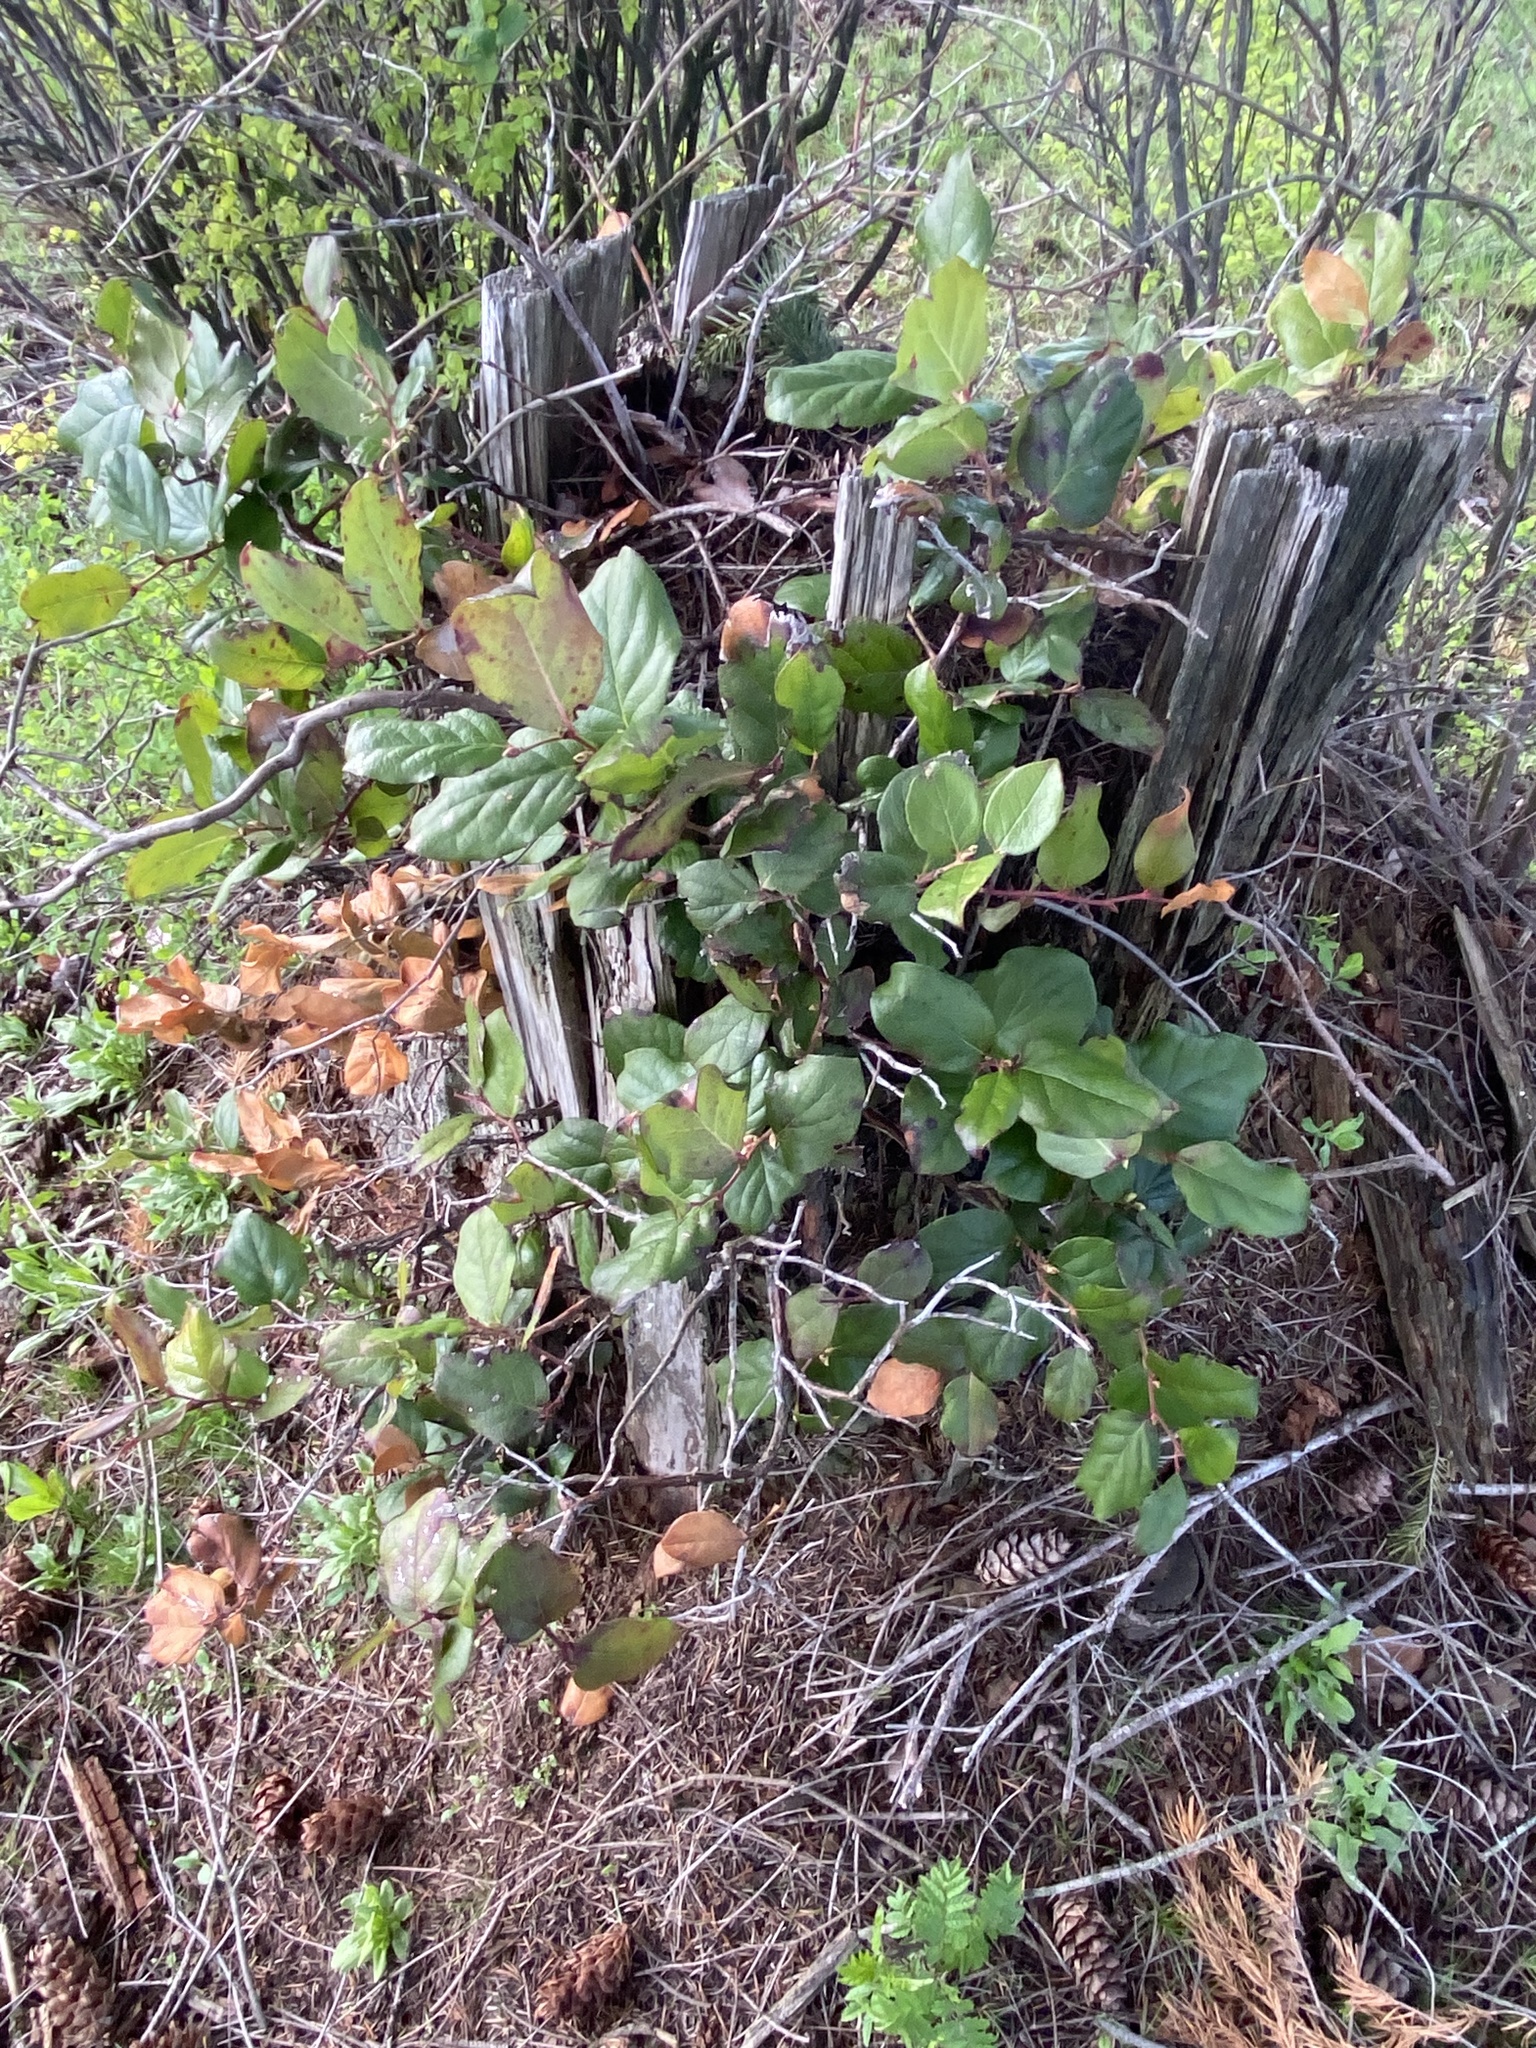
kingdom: Plantae
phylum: Tracheophyta
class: Magnoliopsida
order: Ericales
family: Ericaceae
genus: Gaultheria
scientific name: Gaultheria shallon
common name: Shallon
